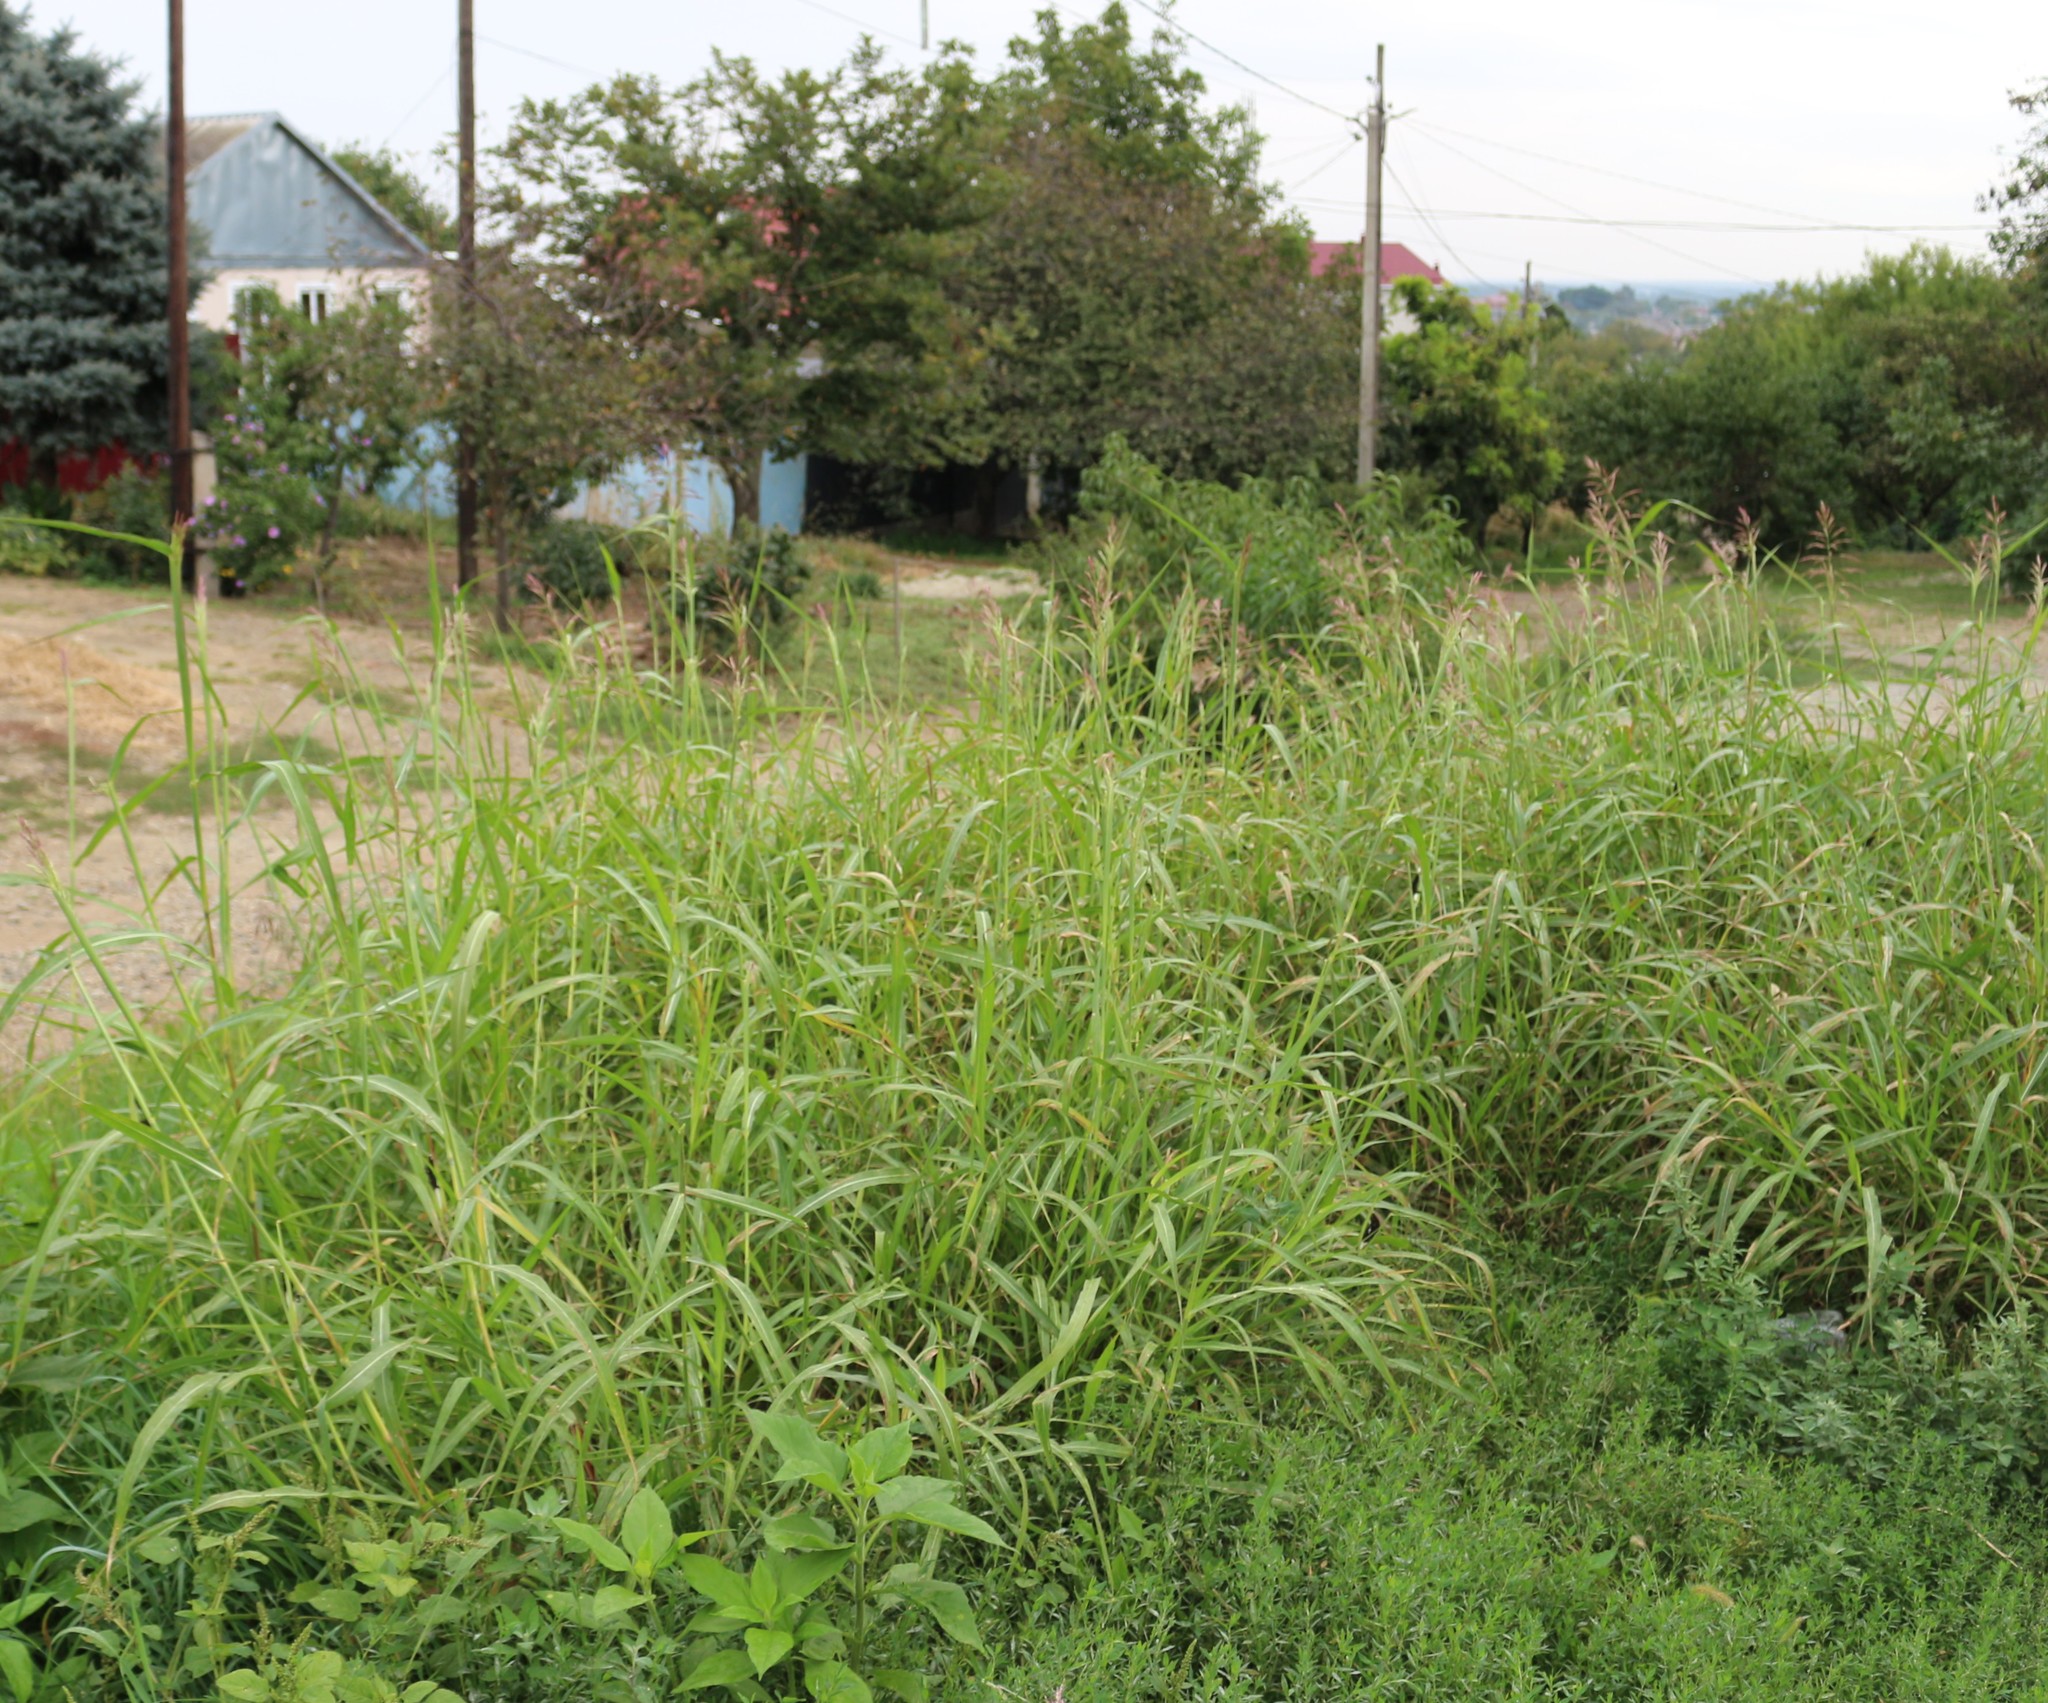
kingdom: Plantae
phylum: Tracheophyta
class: Liliopsida
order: Poales
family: Poaceae
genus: Sorghum
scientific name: Sorghum halepense
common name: Johnson-grass
